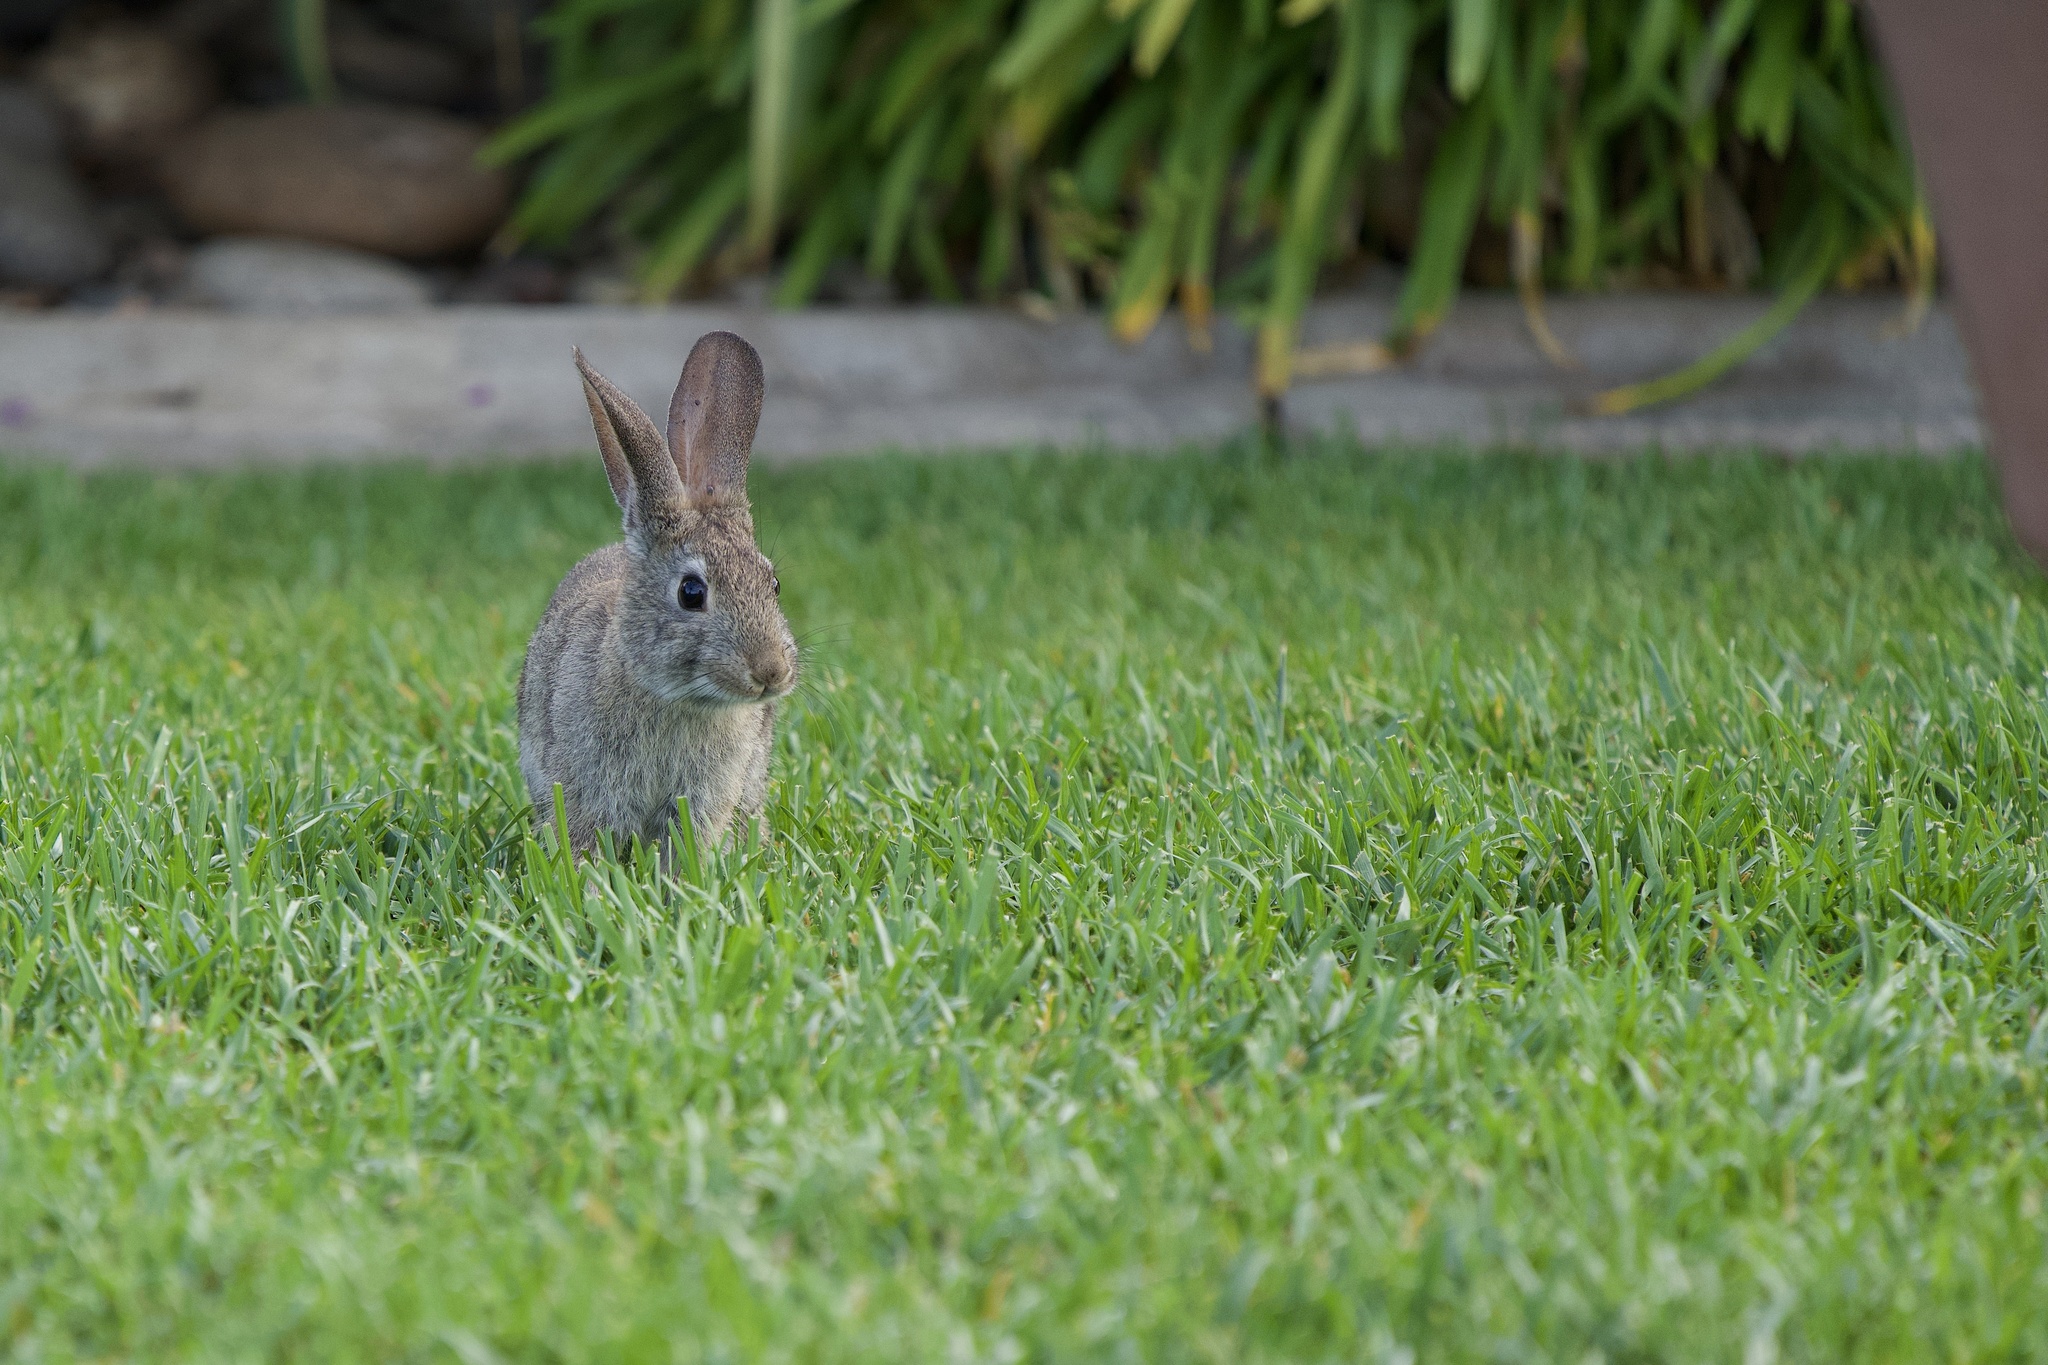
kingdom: Animalia
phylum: Chordata
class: Mammalia
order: Lagomorpha
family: Leporidae
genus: Sylvilagus
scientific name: Sylvilagus bachmani
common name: Brush rabbit
